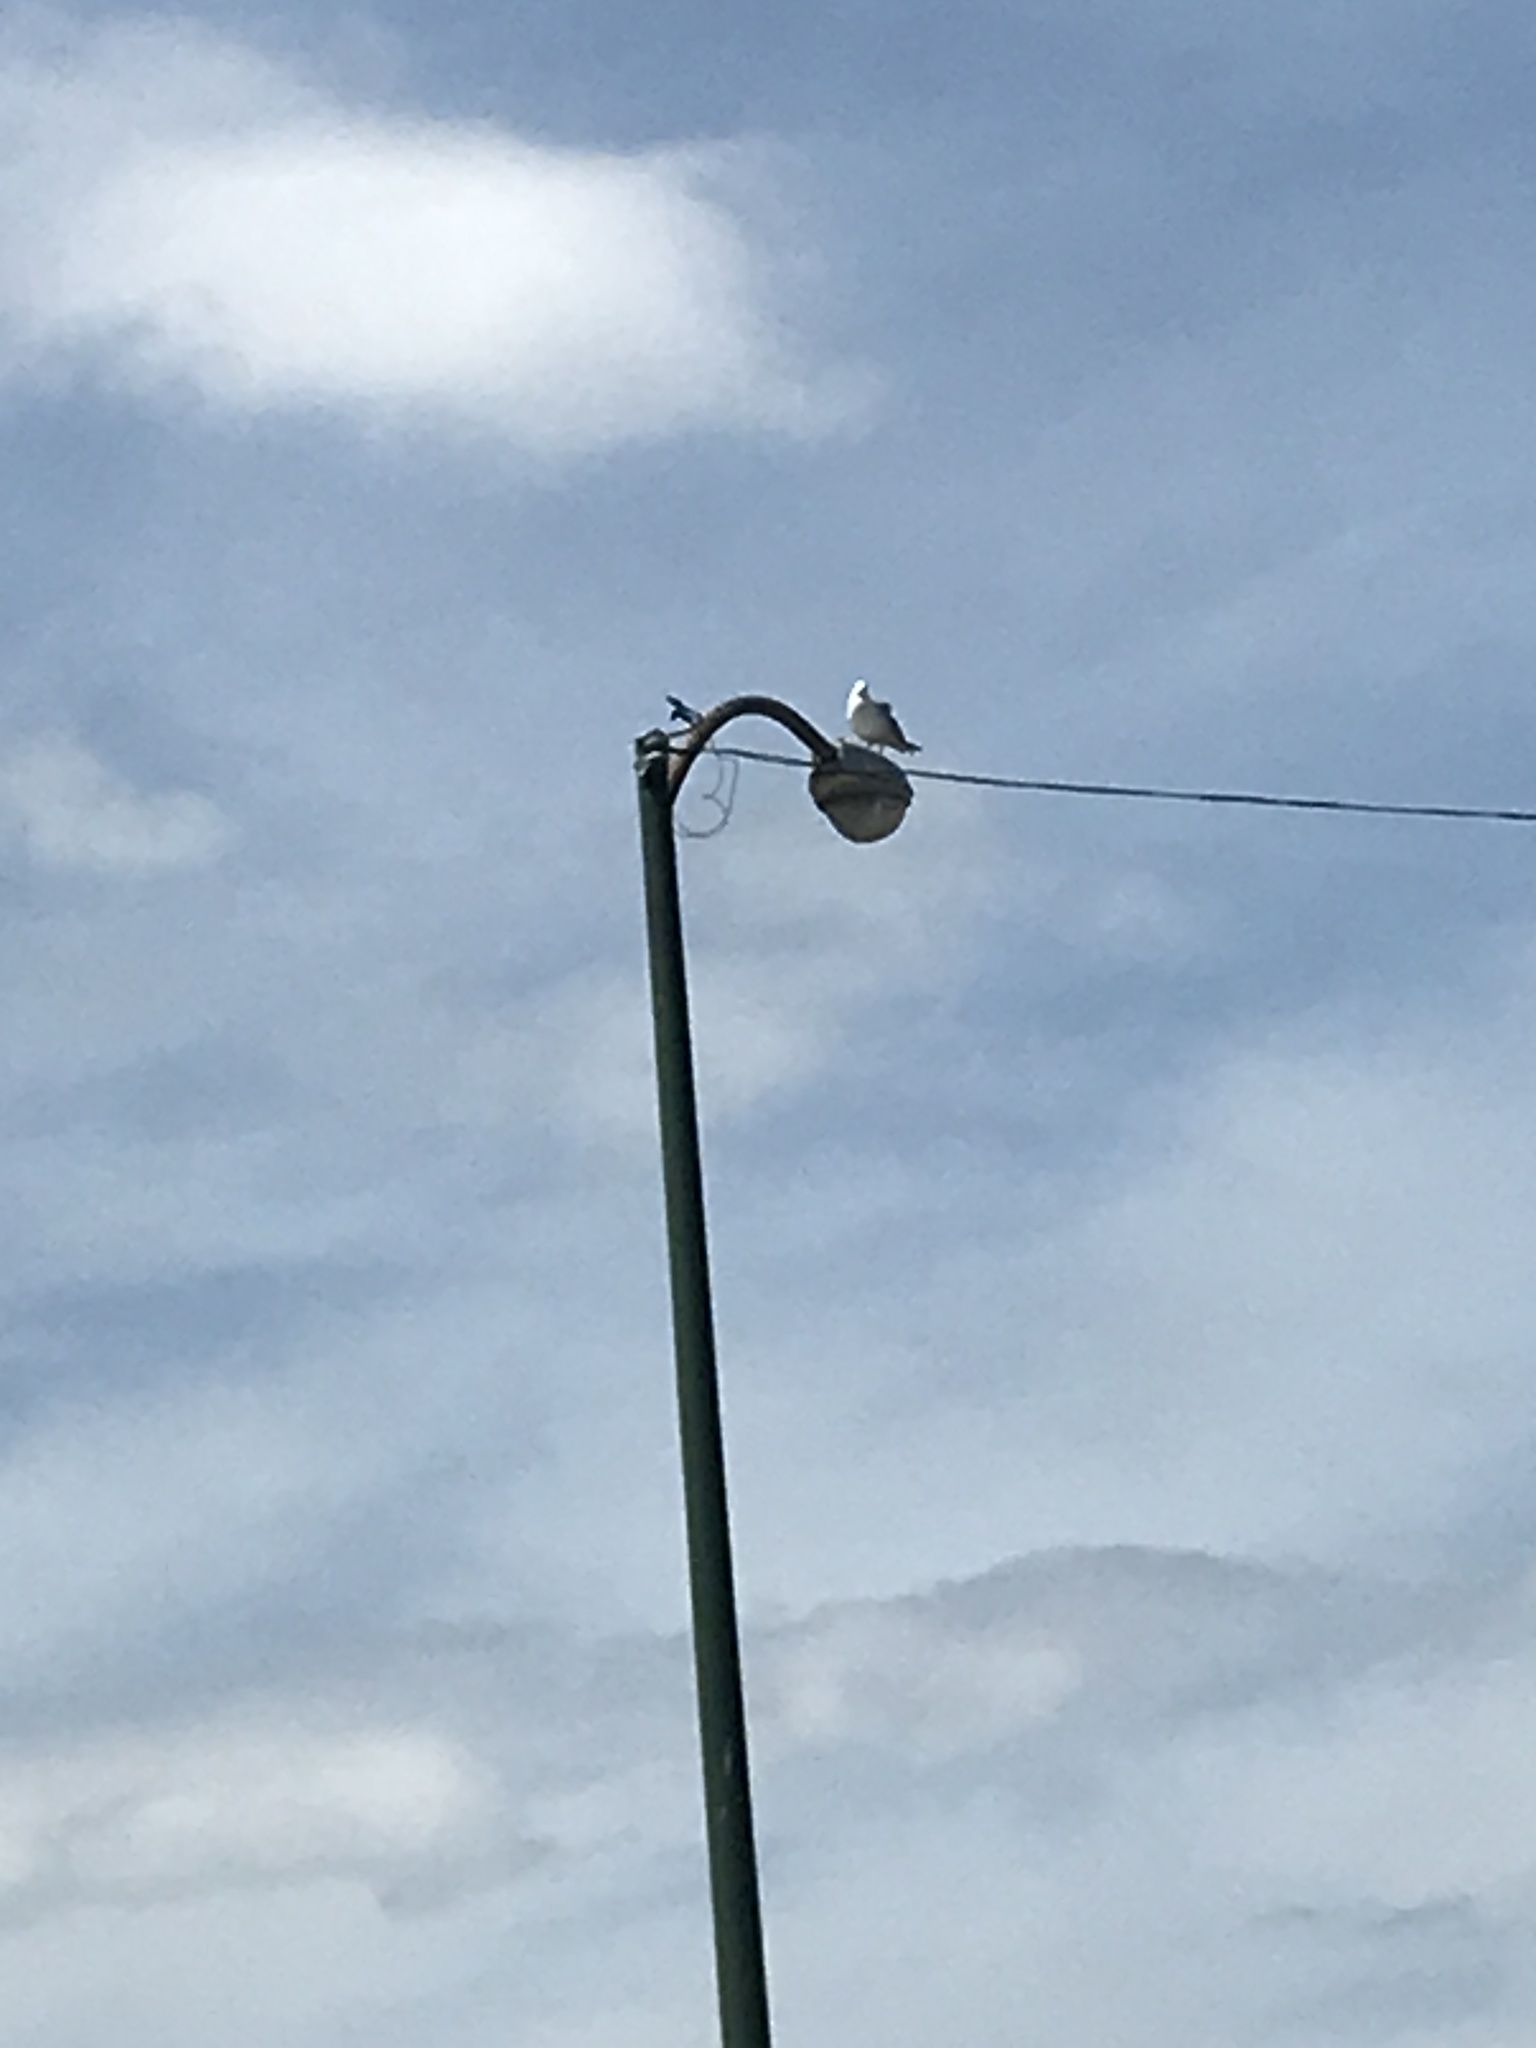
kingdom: Animalia
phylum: Chordata
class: Aves
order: Charadriiformes
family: Laridae
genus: Larus
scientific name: Larus delawarensis
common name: Ring-billed gull
